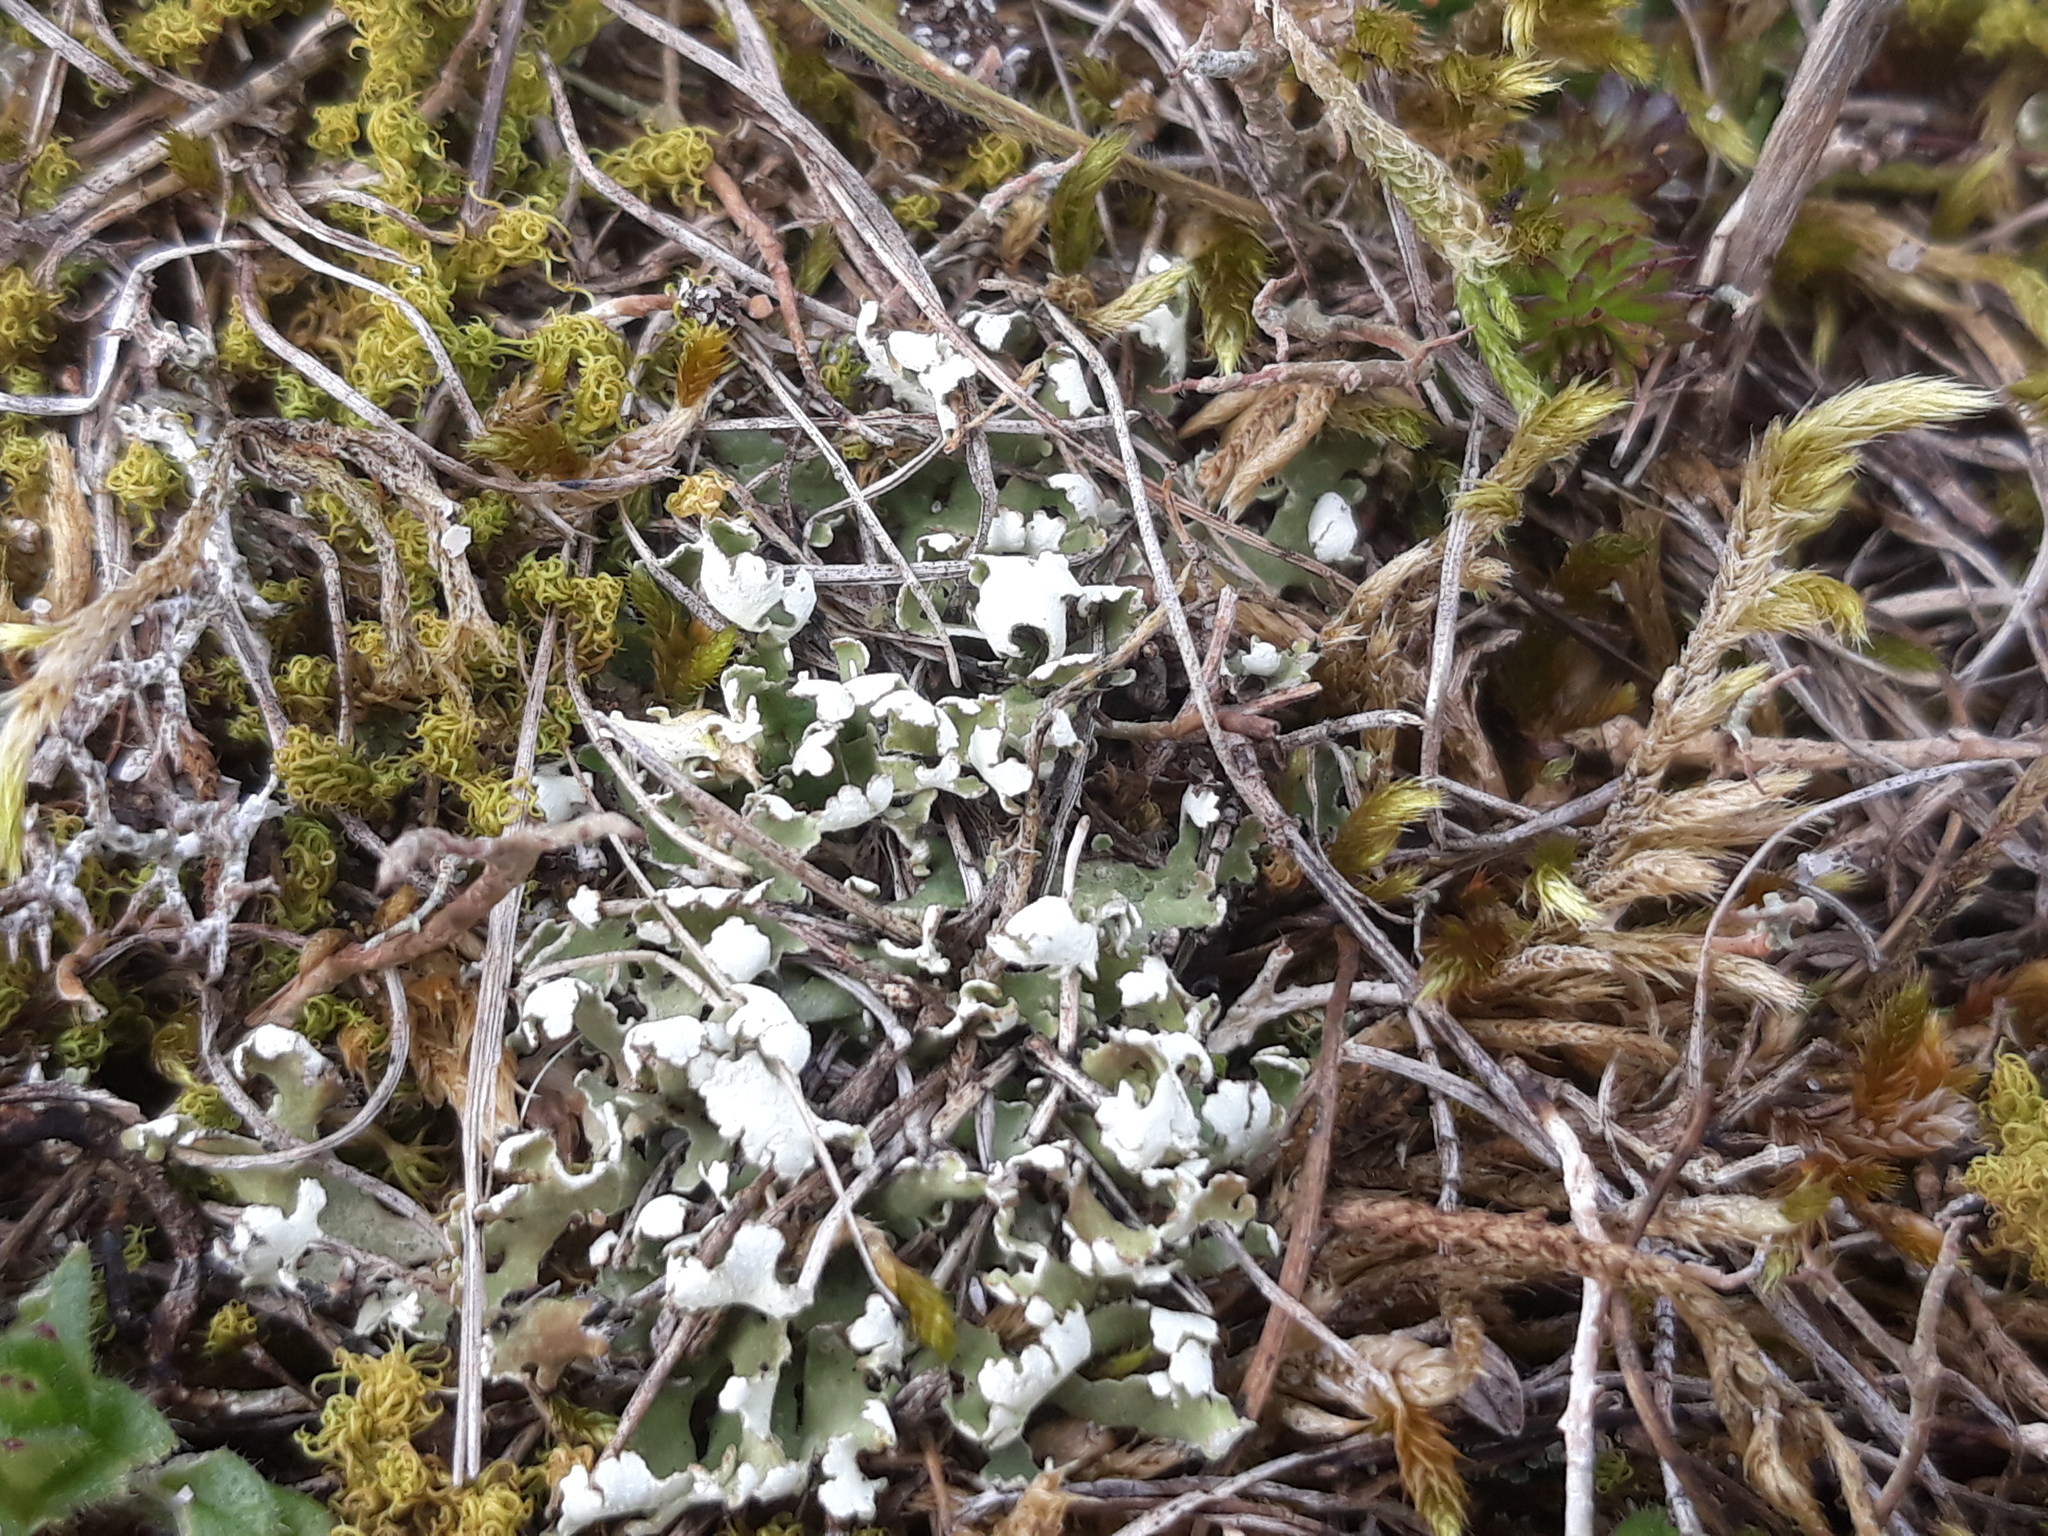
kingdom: Fungi
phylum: Ascomycota
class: Lecanoromycetes
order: Lecanorales
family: Cladoniaceae
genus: Cladonia
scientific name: Cladonia foliacea
